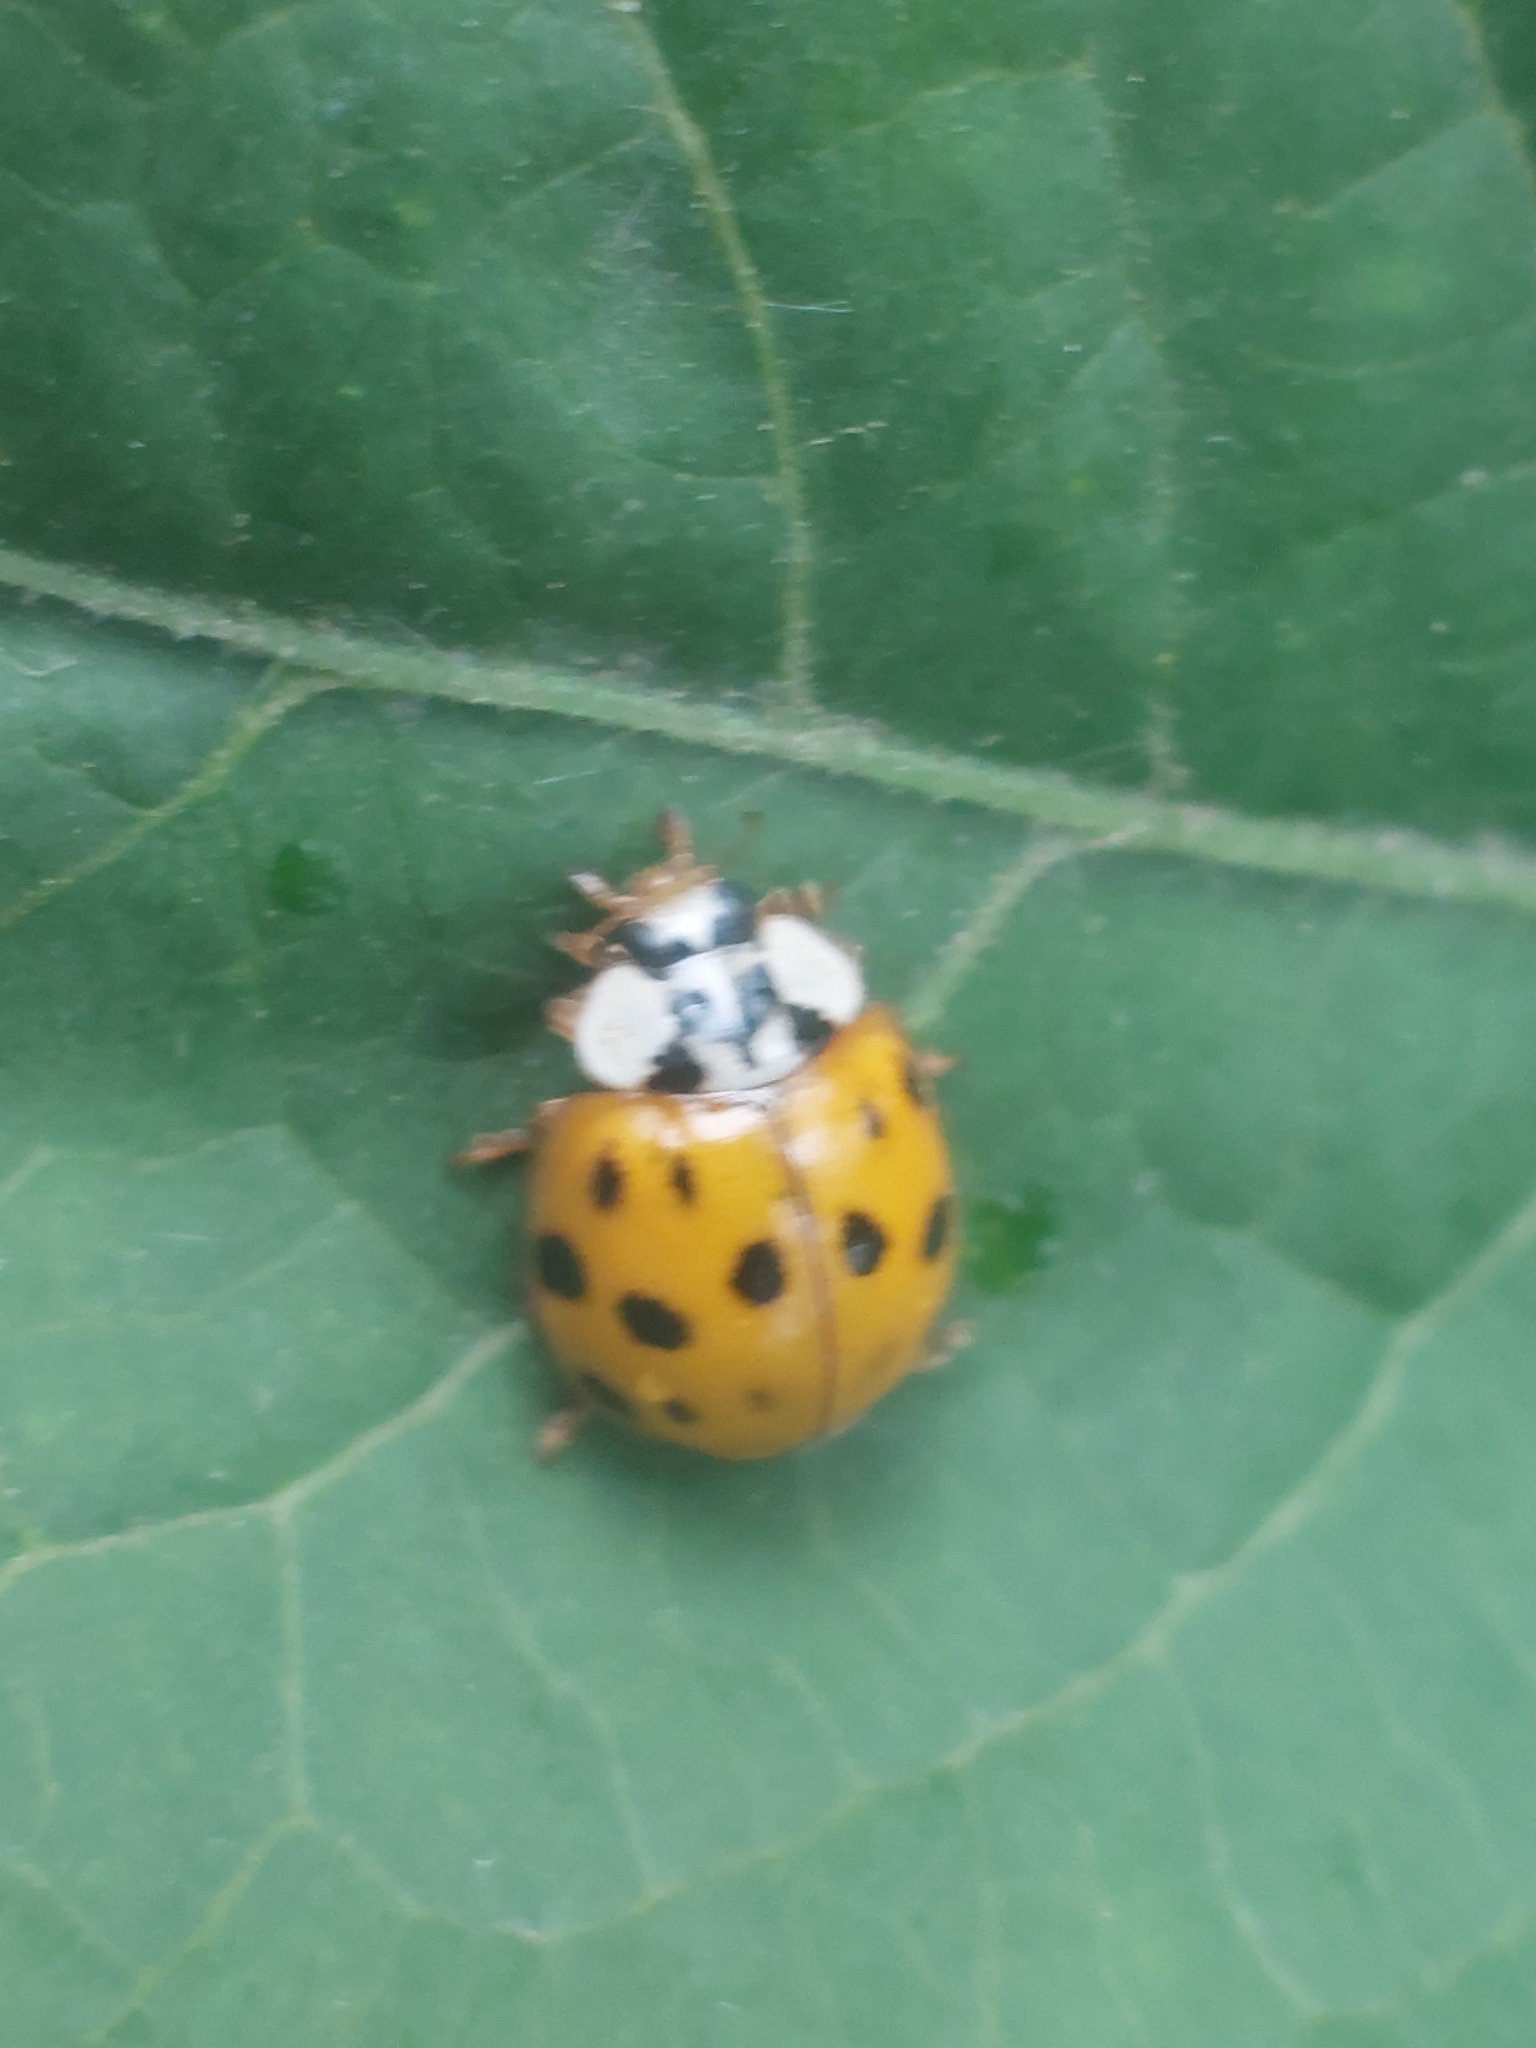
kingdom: Animalia
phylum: Arthropoda
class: Insecta
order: Coleoptera
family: Coccinellidae
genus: Harmonia
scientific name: Harmonia axyridis
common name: Harlequin ladybird
